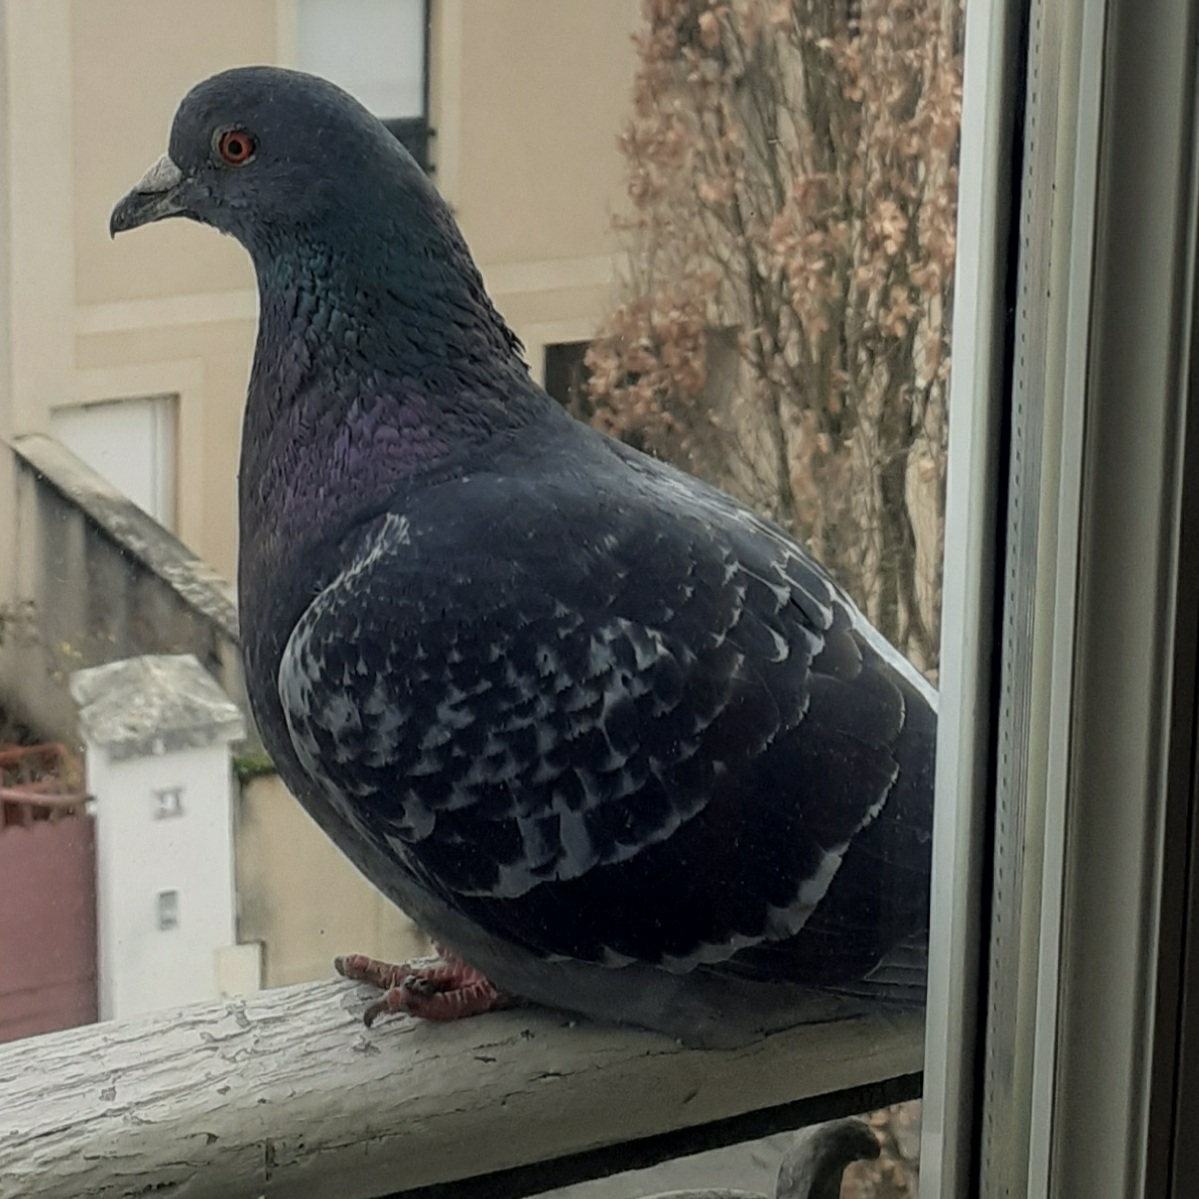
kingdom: Animalia
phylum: Chordata
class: Aves
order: Columbiformes
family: Columbidae
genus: Columba
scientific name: Columba livia
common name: Rock pigeon
